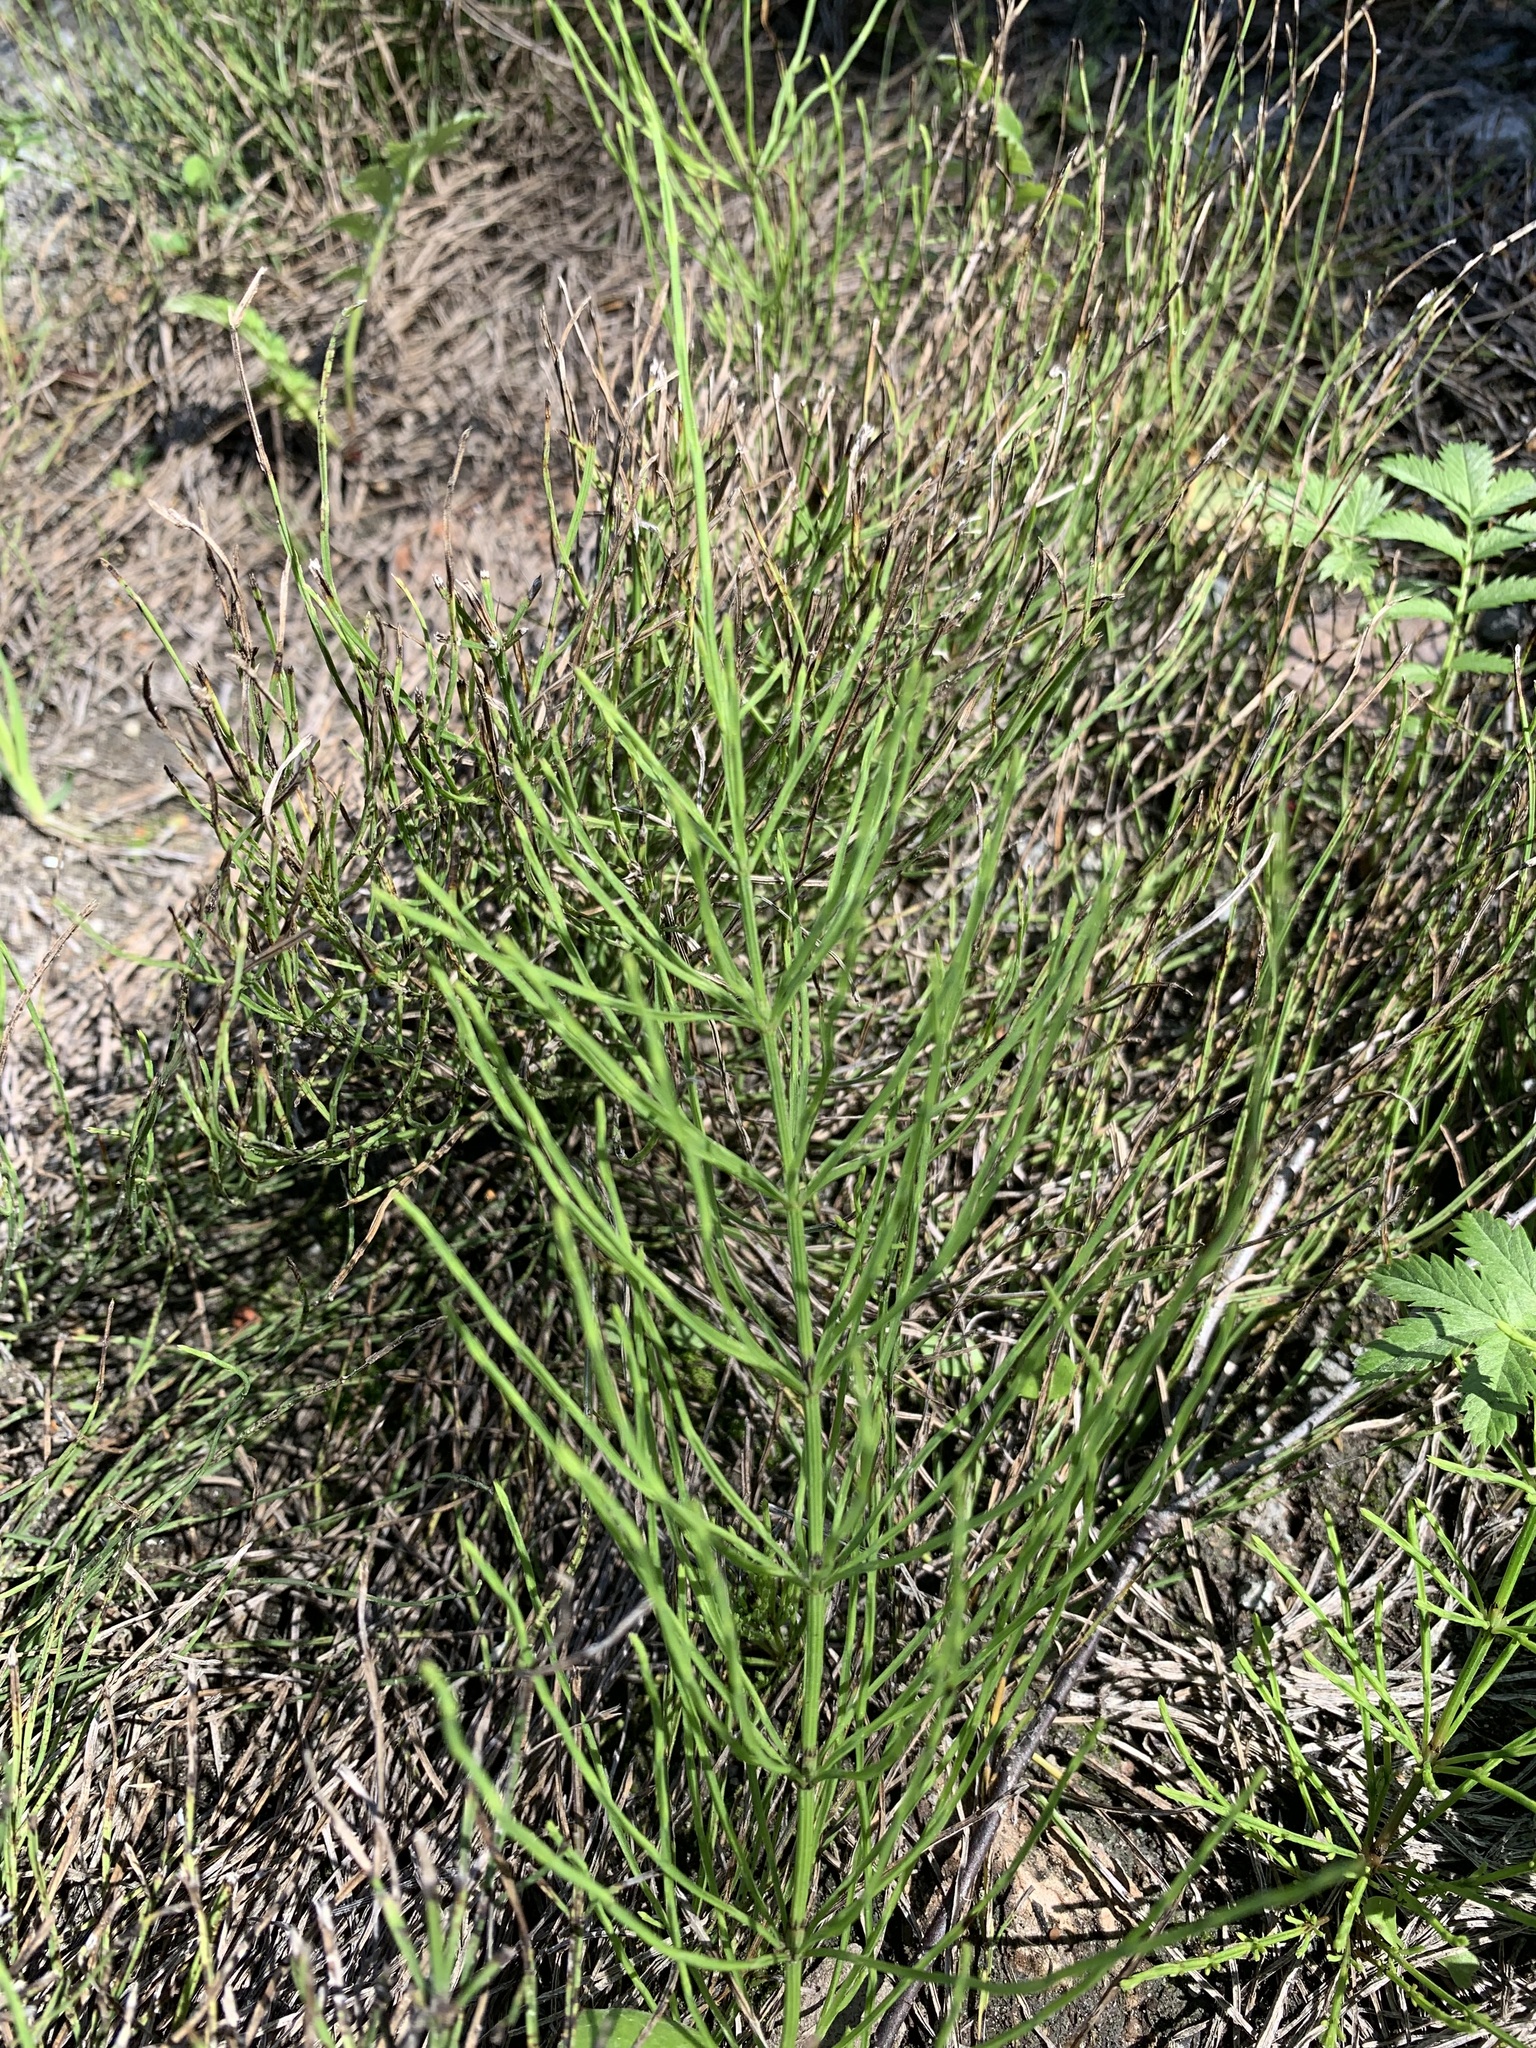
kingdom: Plantae
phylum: Tracheophyta
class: Polypodiopsida
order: Equisetales
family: Equisetaceae
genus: Equisetum
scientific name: Equisetum arvense
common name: Field horsetail
